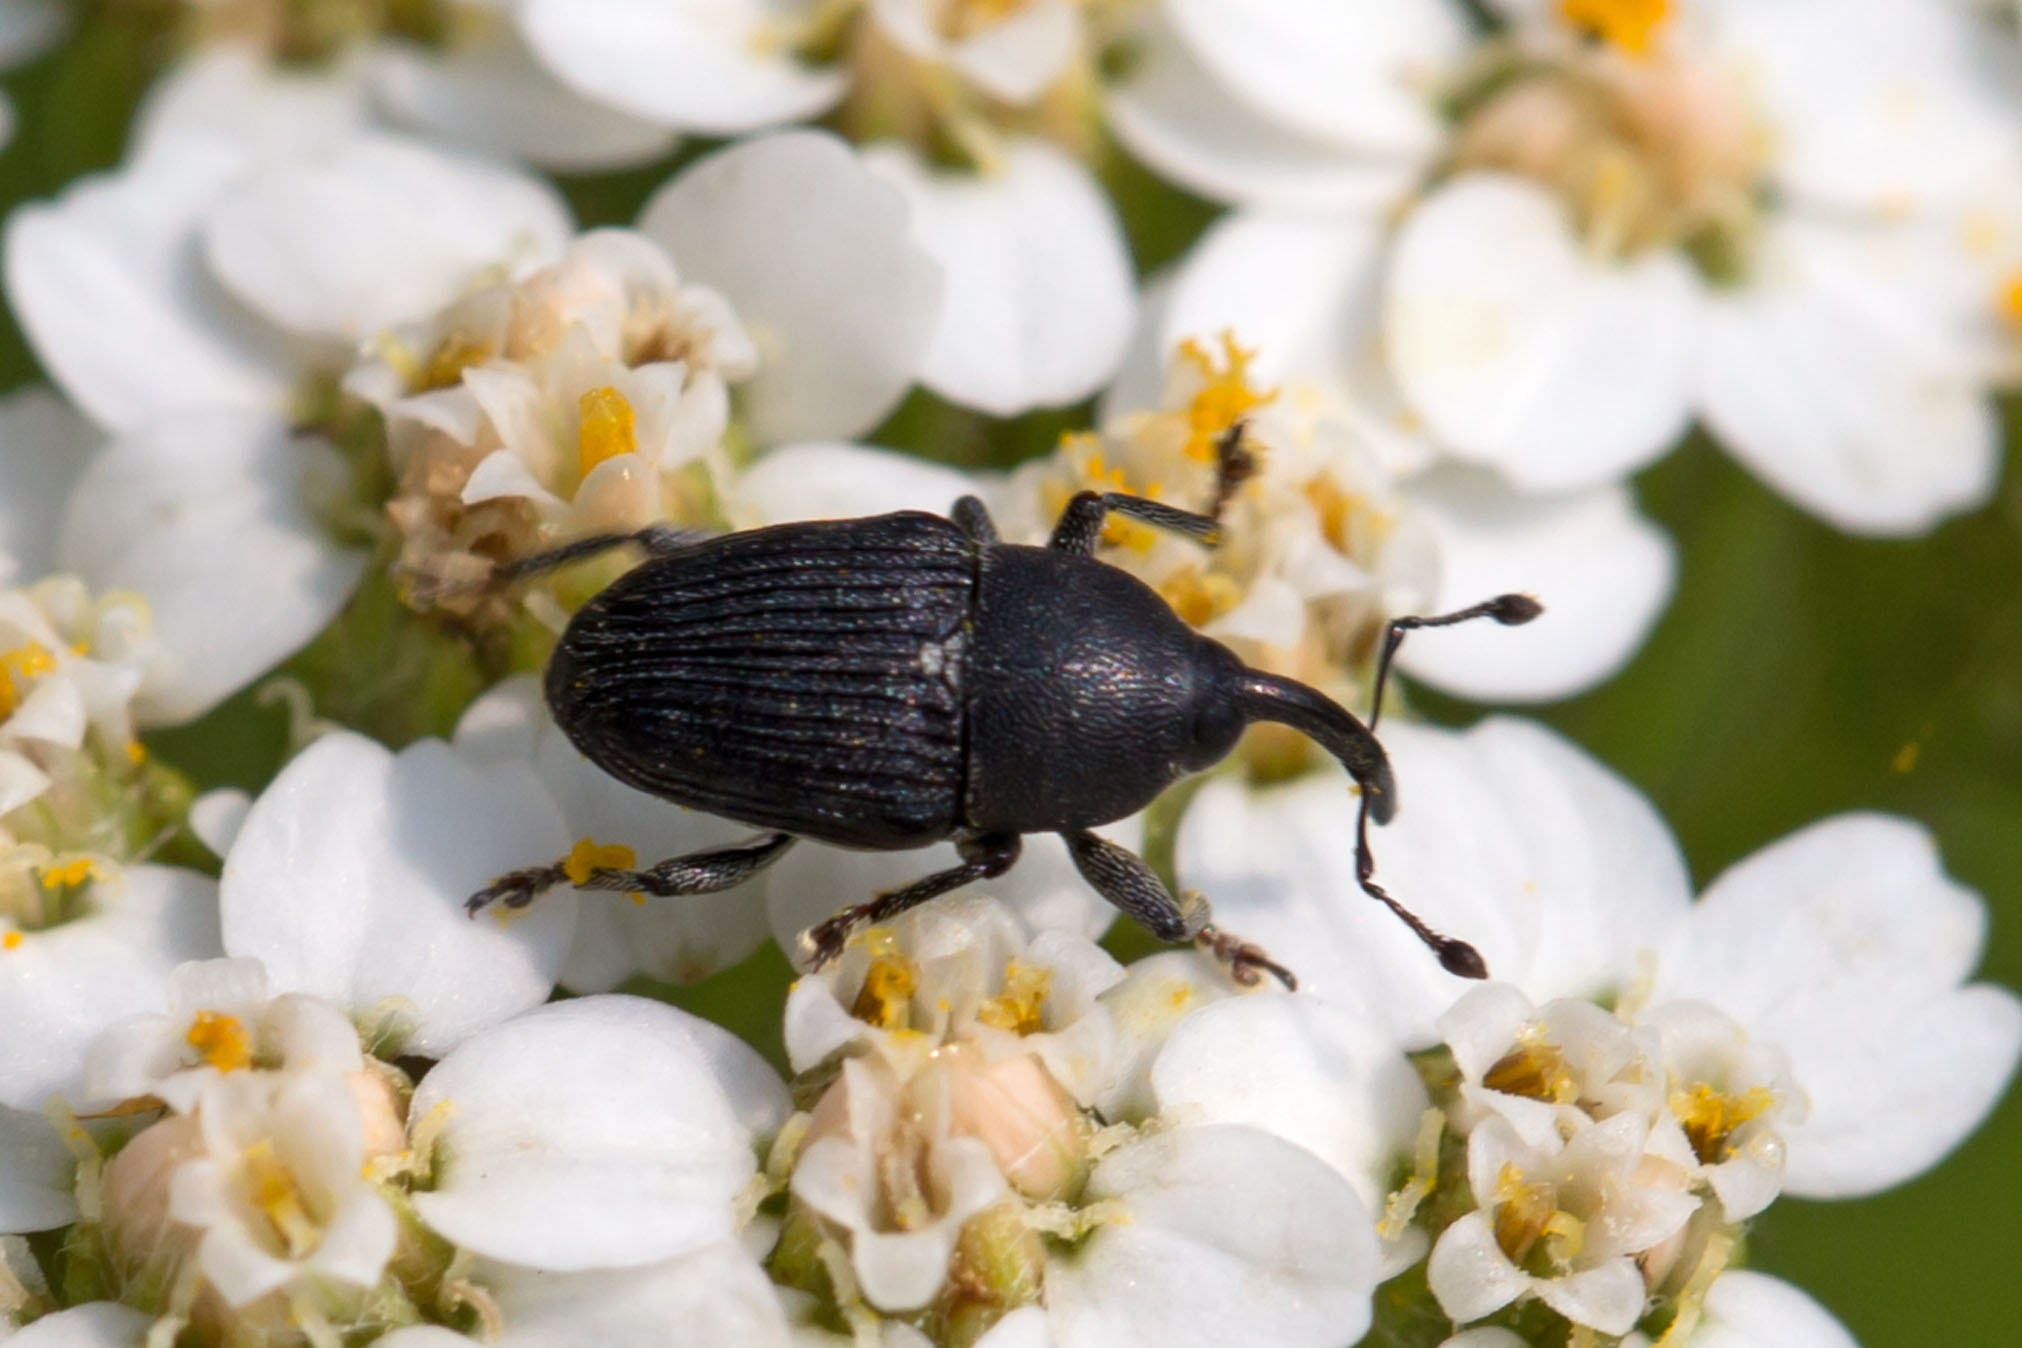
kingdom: Animalia
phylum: Arthropoda
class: Insecta
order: Coleoptera
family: Curculionidae
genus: Odontocorynus
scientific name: Odontocorynus salebrosus
